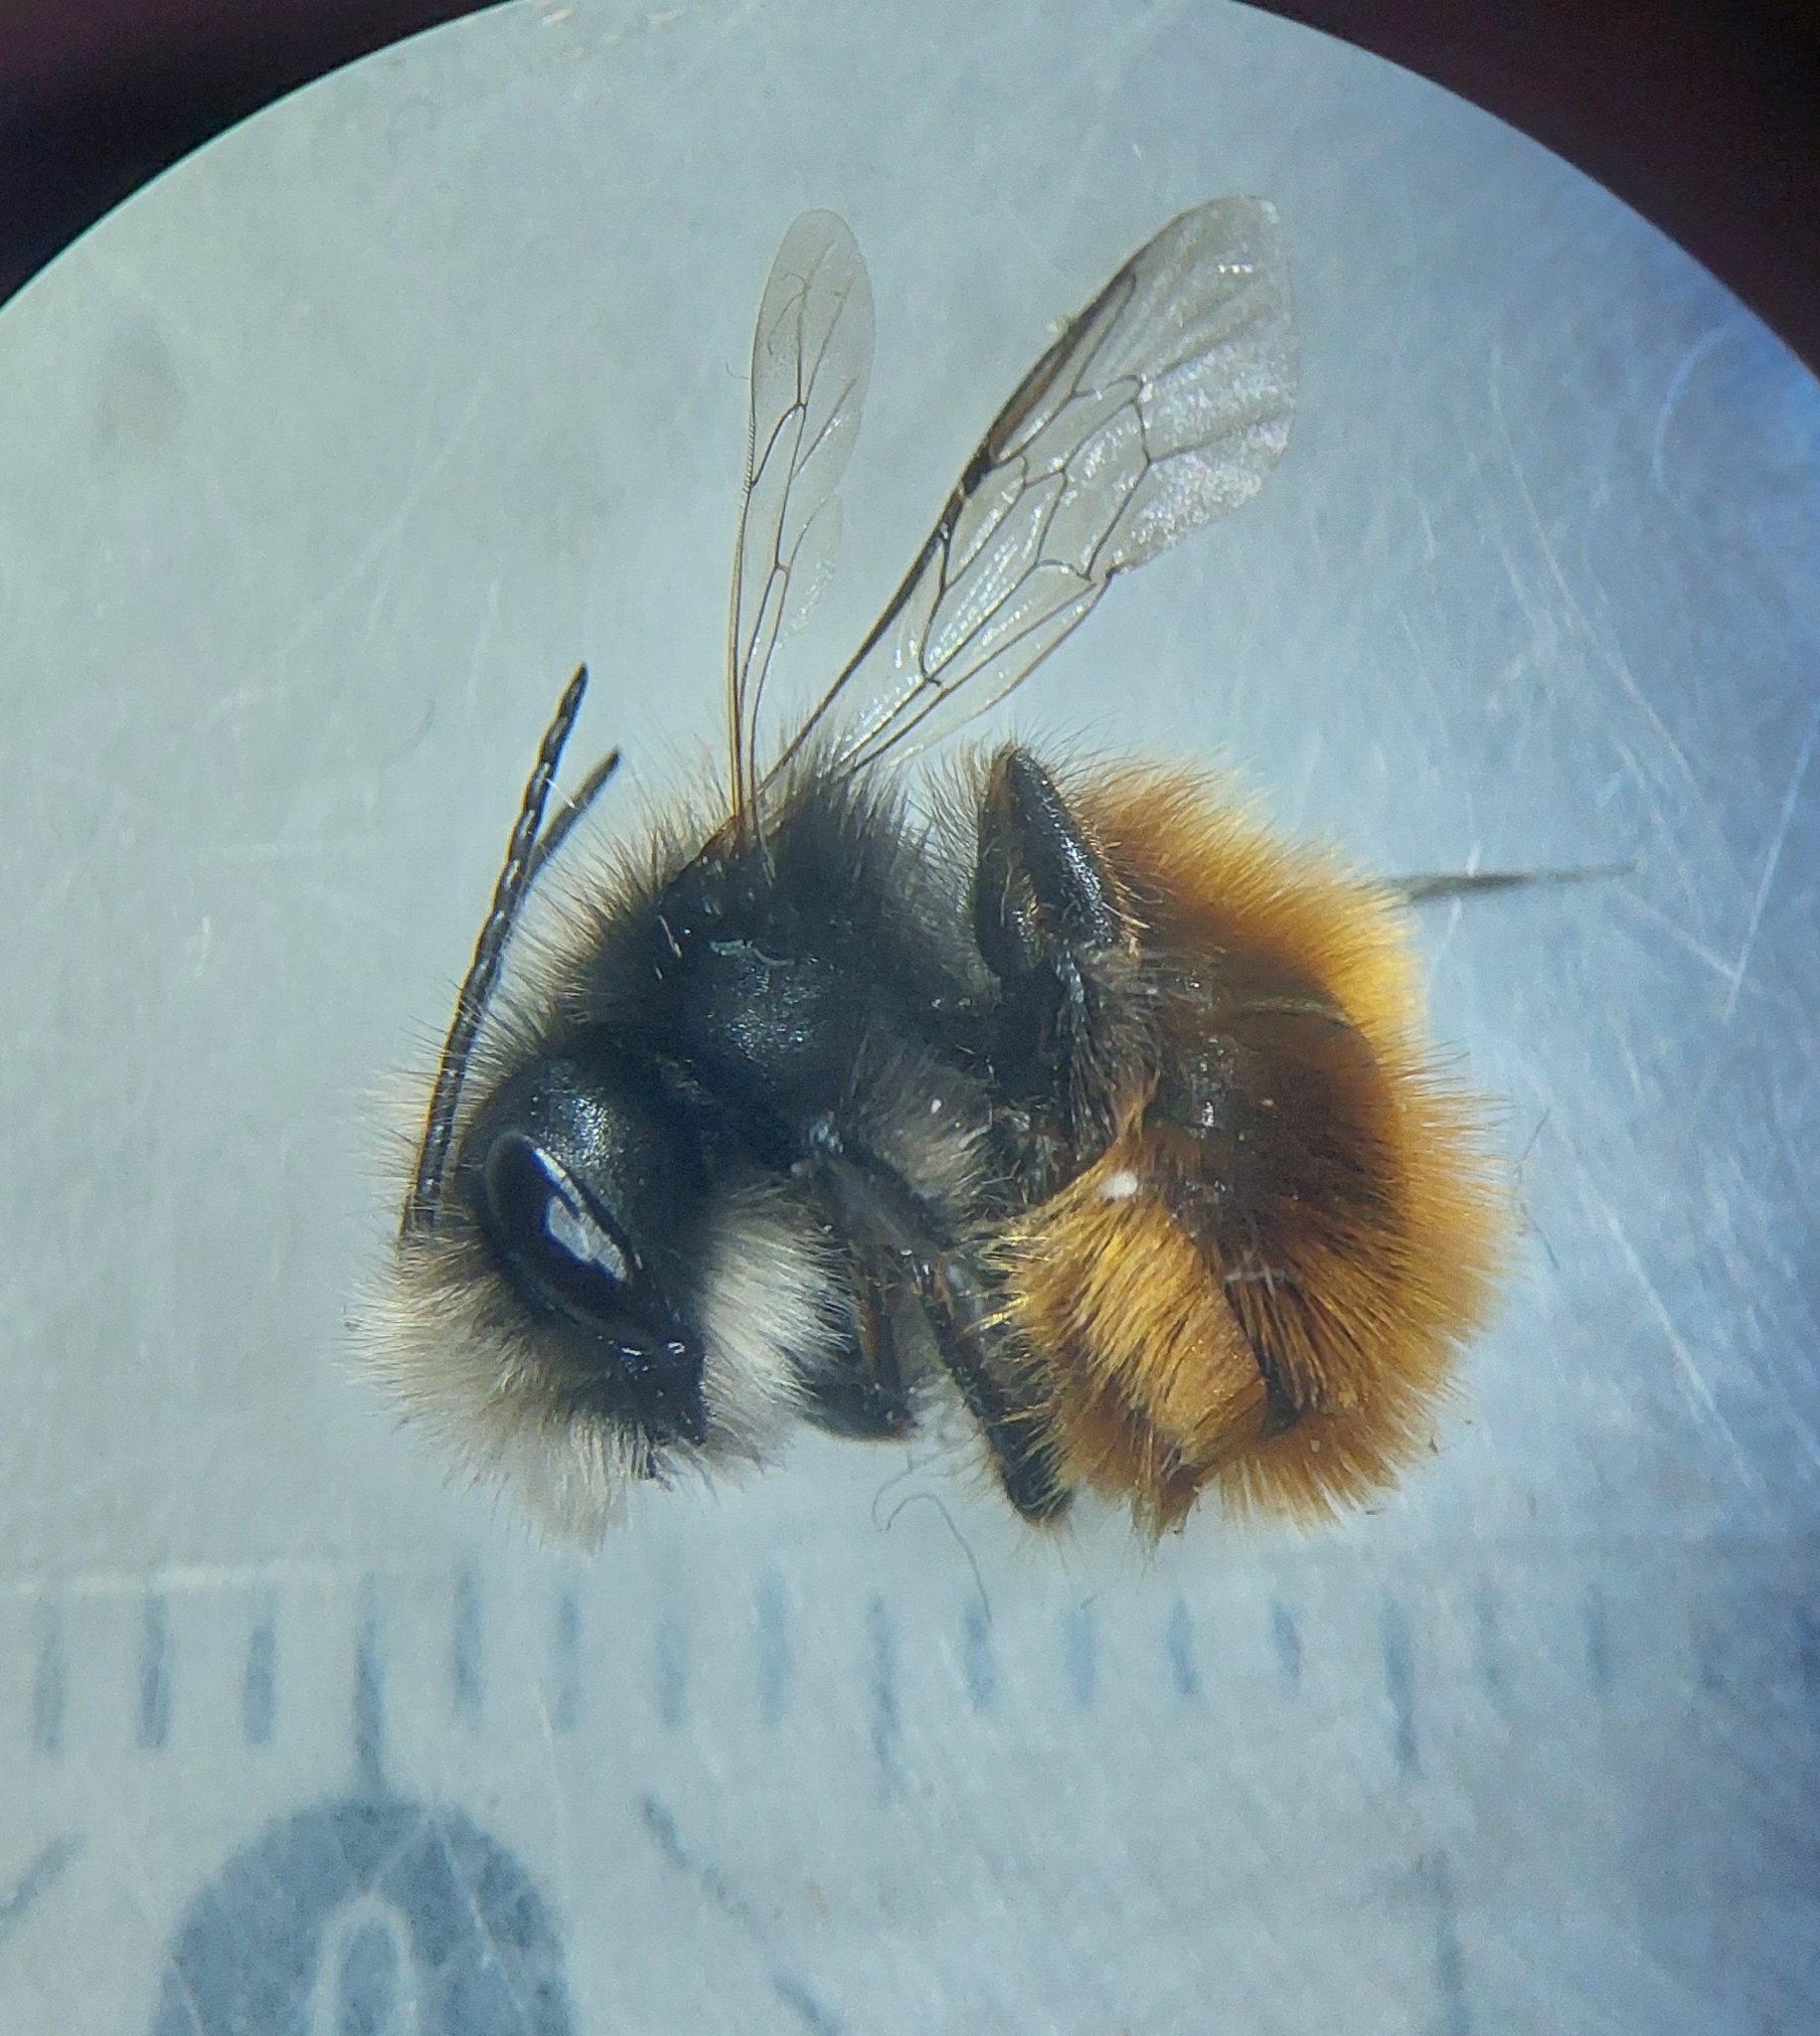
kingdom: Animalia
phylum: Arthropoda
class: Insecta
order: Hymenoptera
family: Megachilidae
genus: Osmia
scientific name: Osmia cornuta
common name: Mason bee
